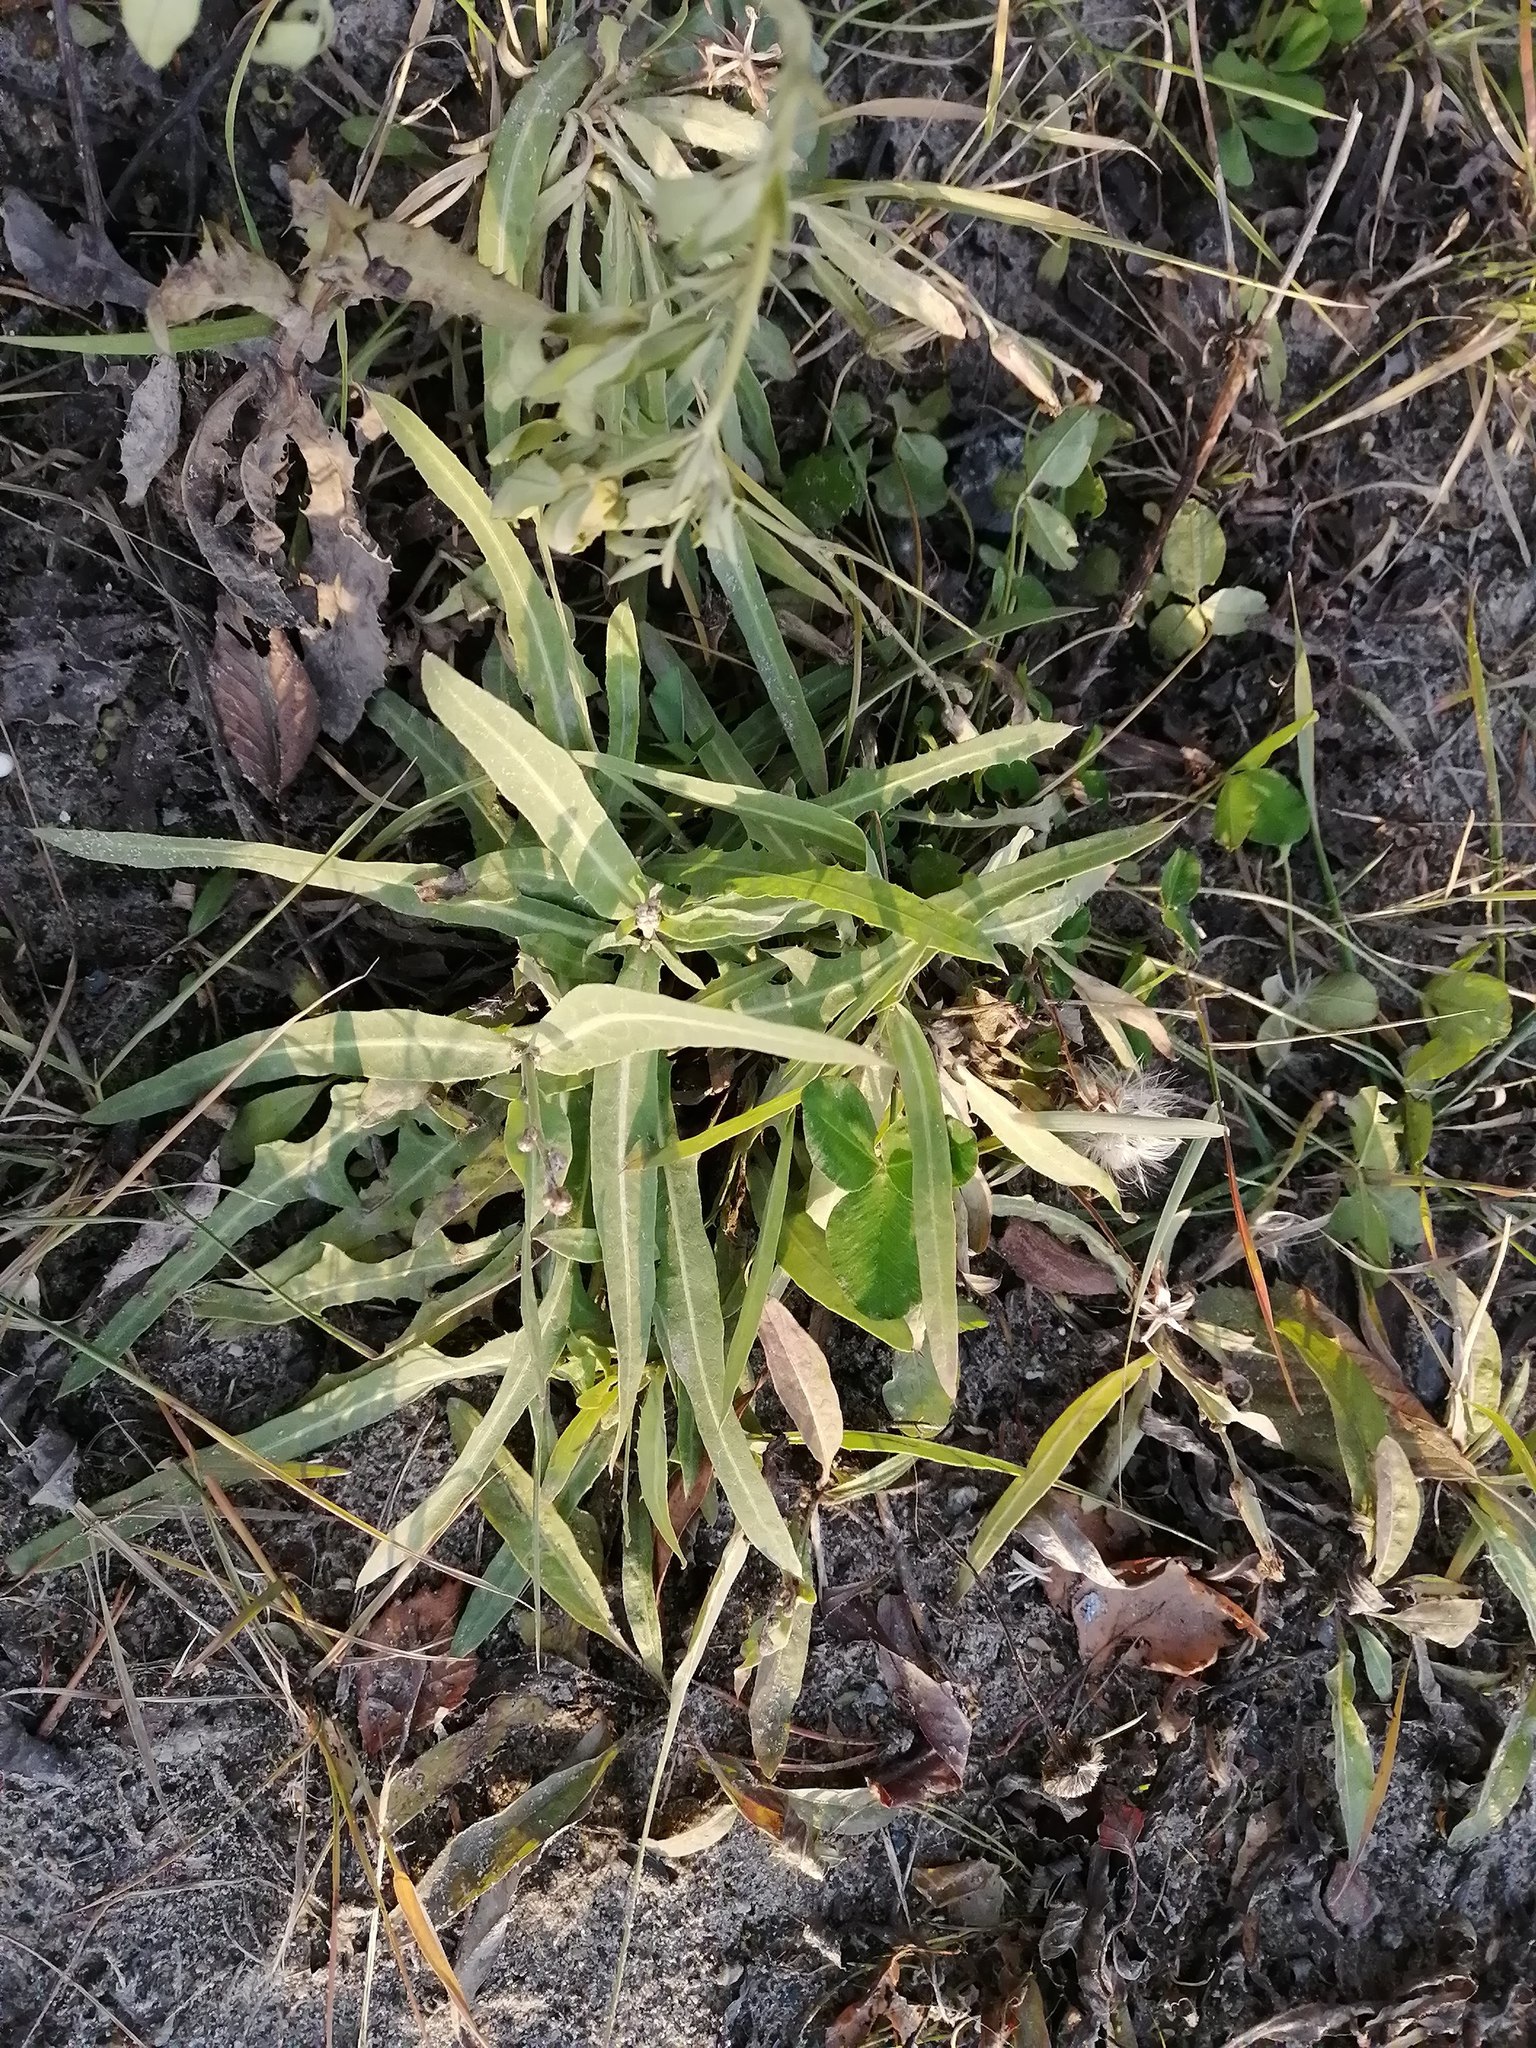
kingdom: Plantae
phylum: Tracheophyta
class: Magnoliopsida
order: Asterales
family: Asteraceae
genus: Lactuca
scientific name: Lactuca tatarica
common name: Blue lettuce
